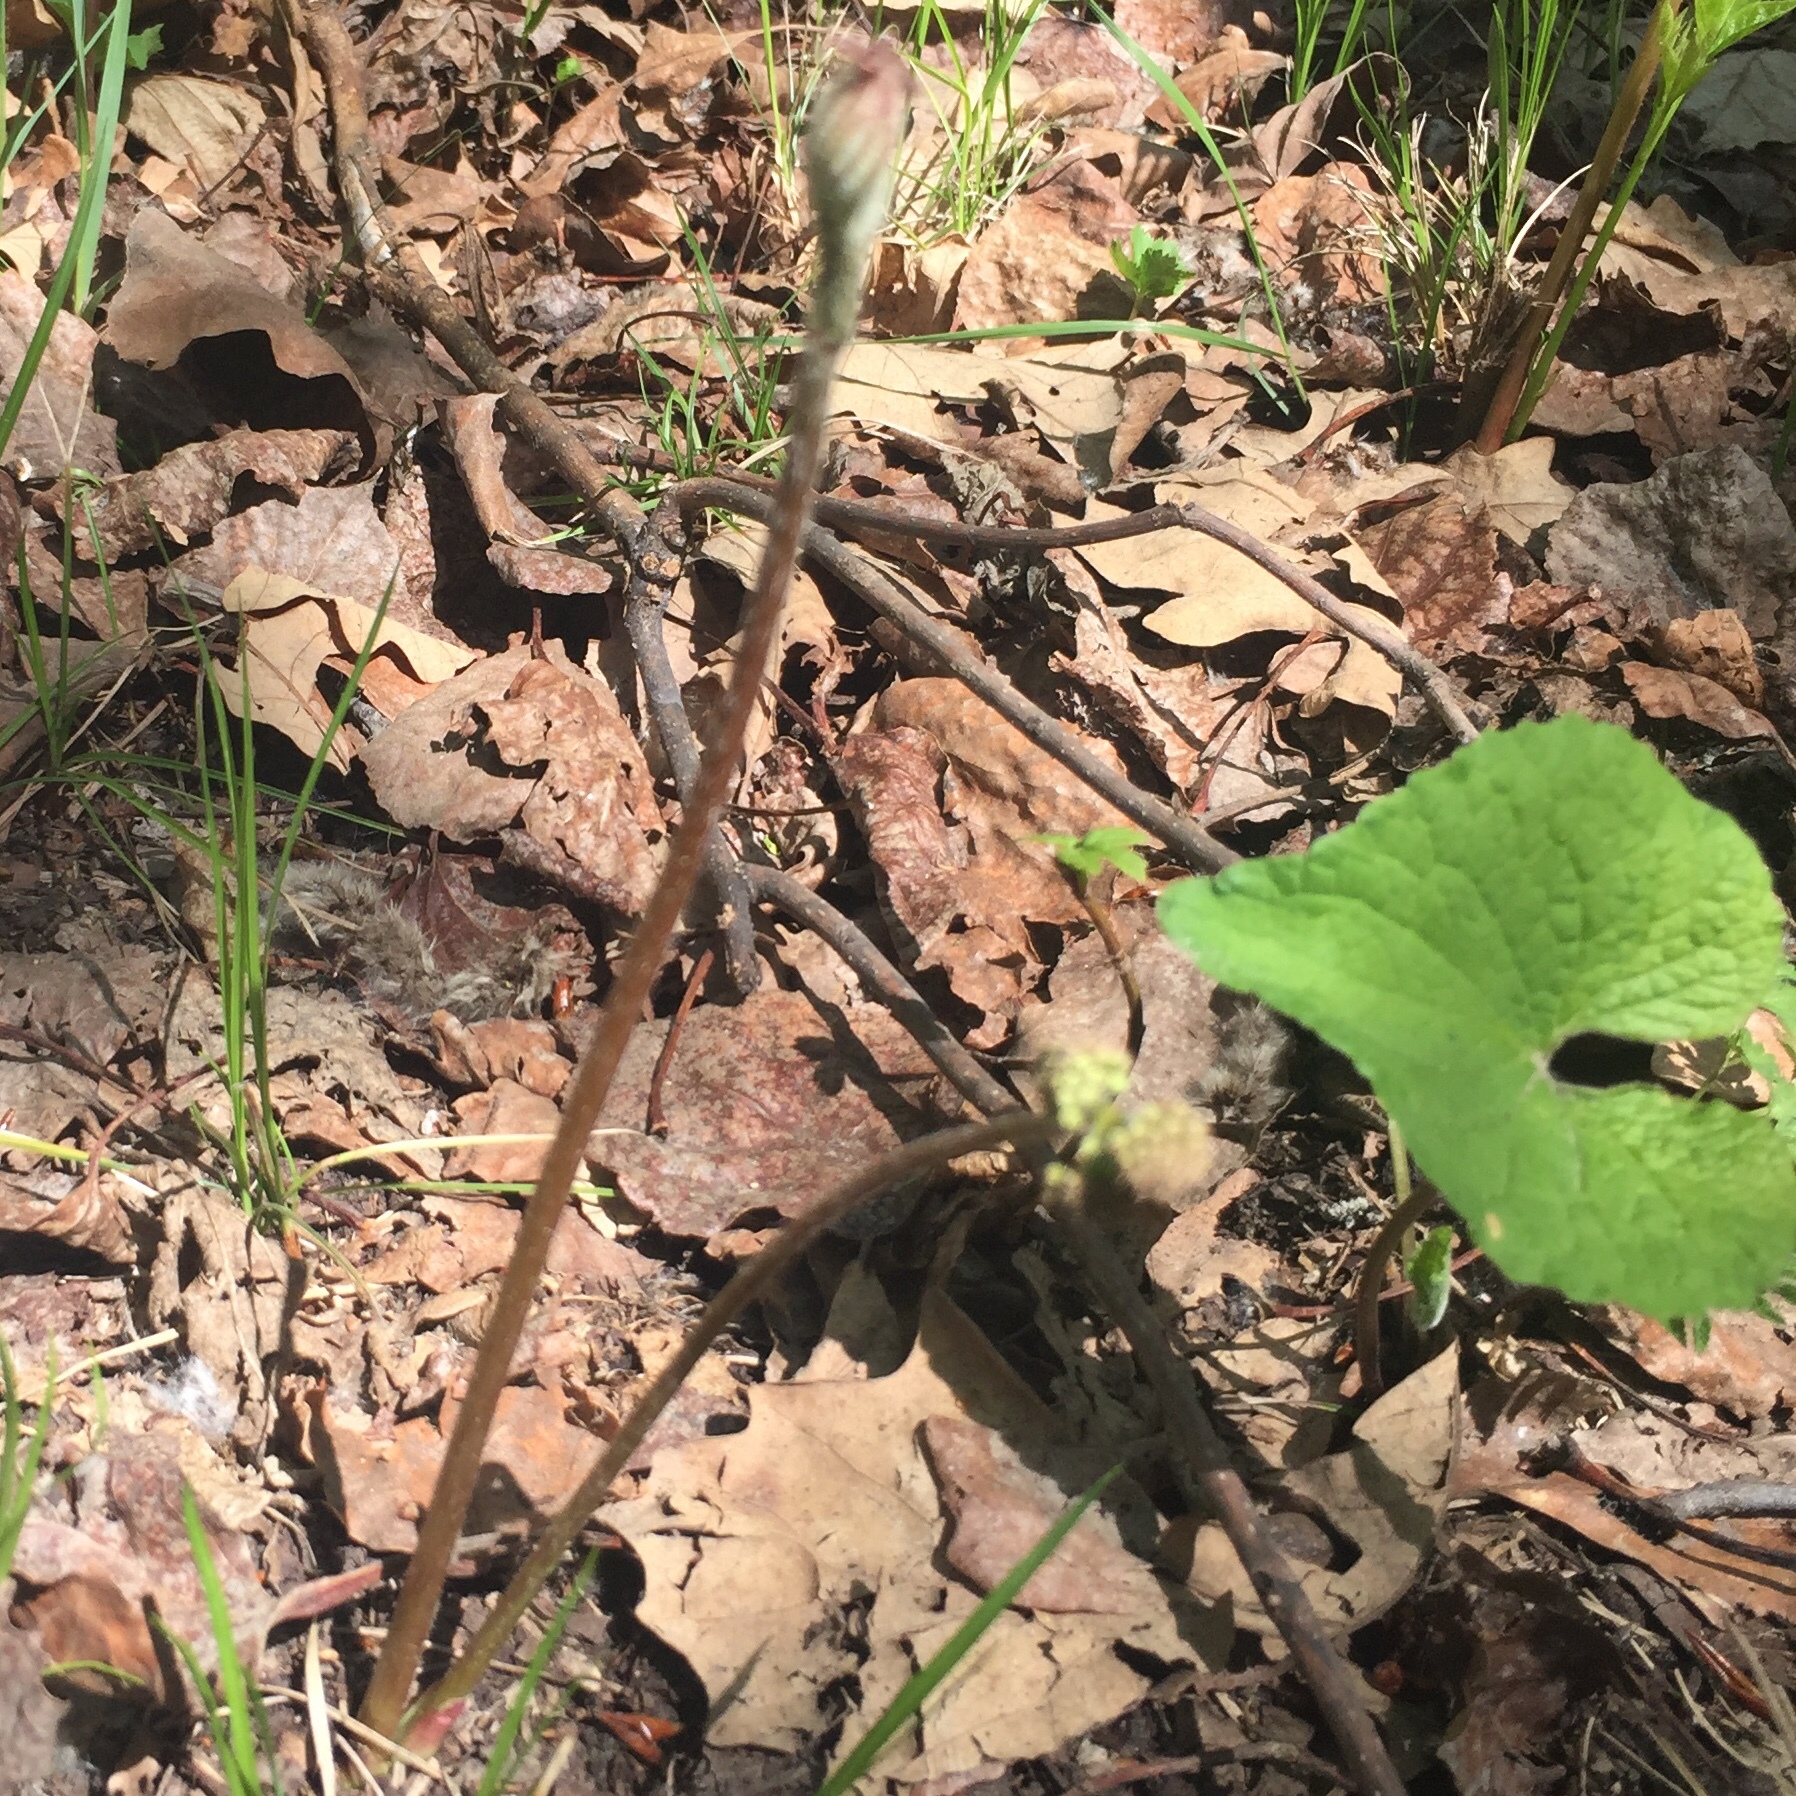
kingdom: Plantae
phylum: Tracheophyta
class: Magnoliopsida
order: Apiales
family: Araliaceae
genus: Aralia
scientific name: Aralia nudicaulis
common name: Wild sarsaparilla
